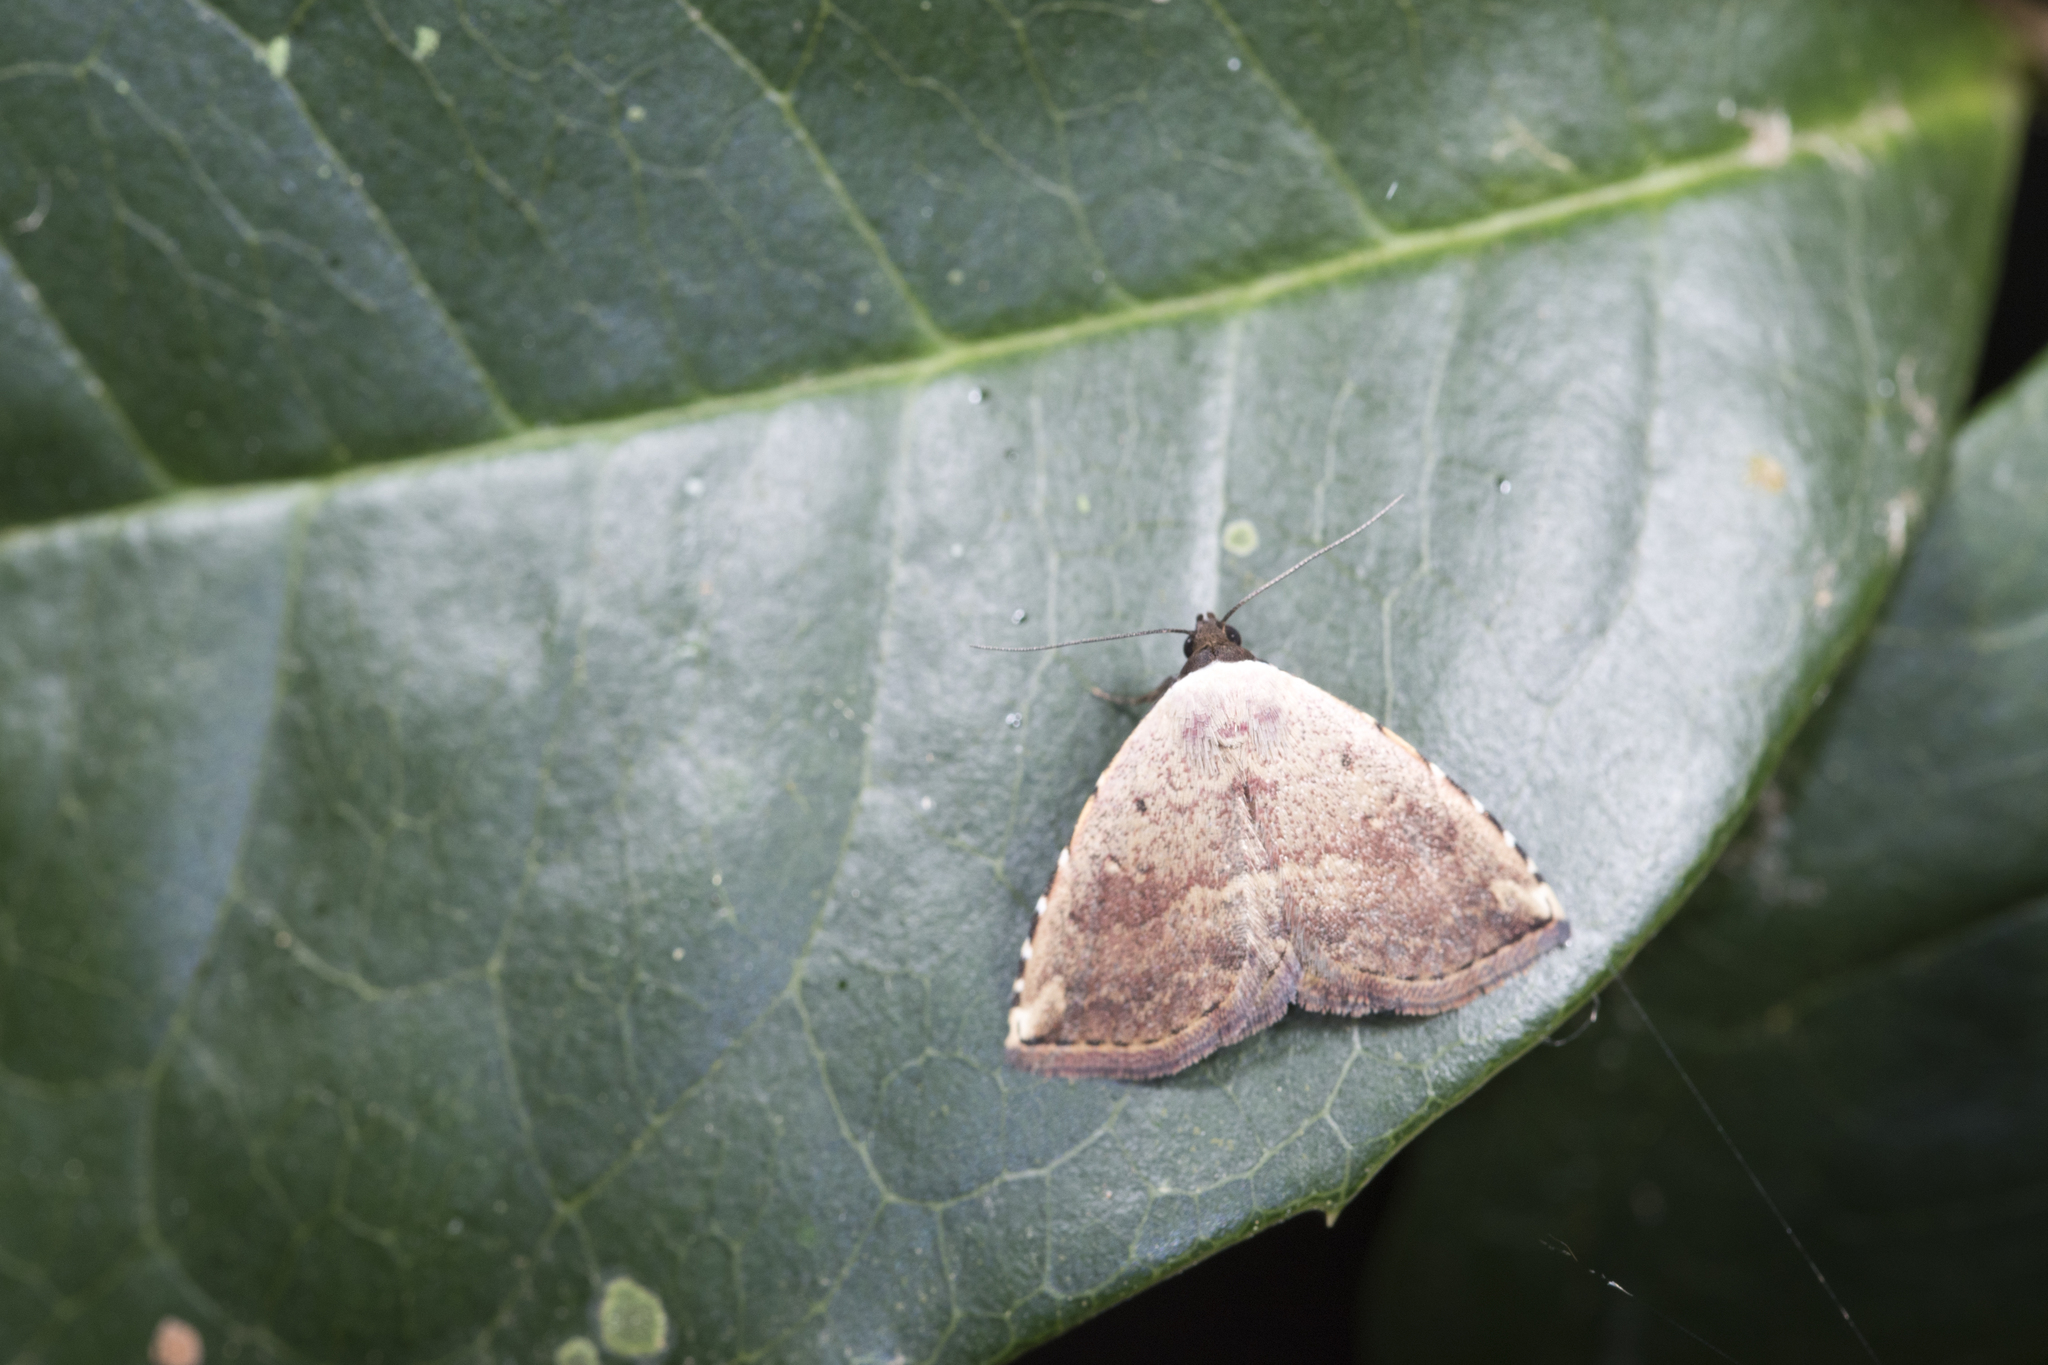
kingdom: Animalia
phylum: Arthropoda
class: Insecta
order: Lepidoptera
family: Noctuidae
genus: Autoba
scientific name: Autoba tristalis
